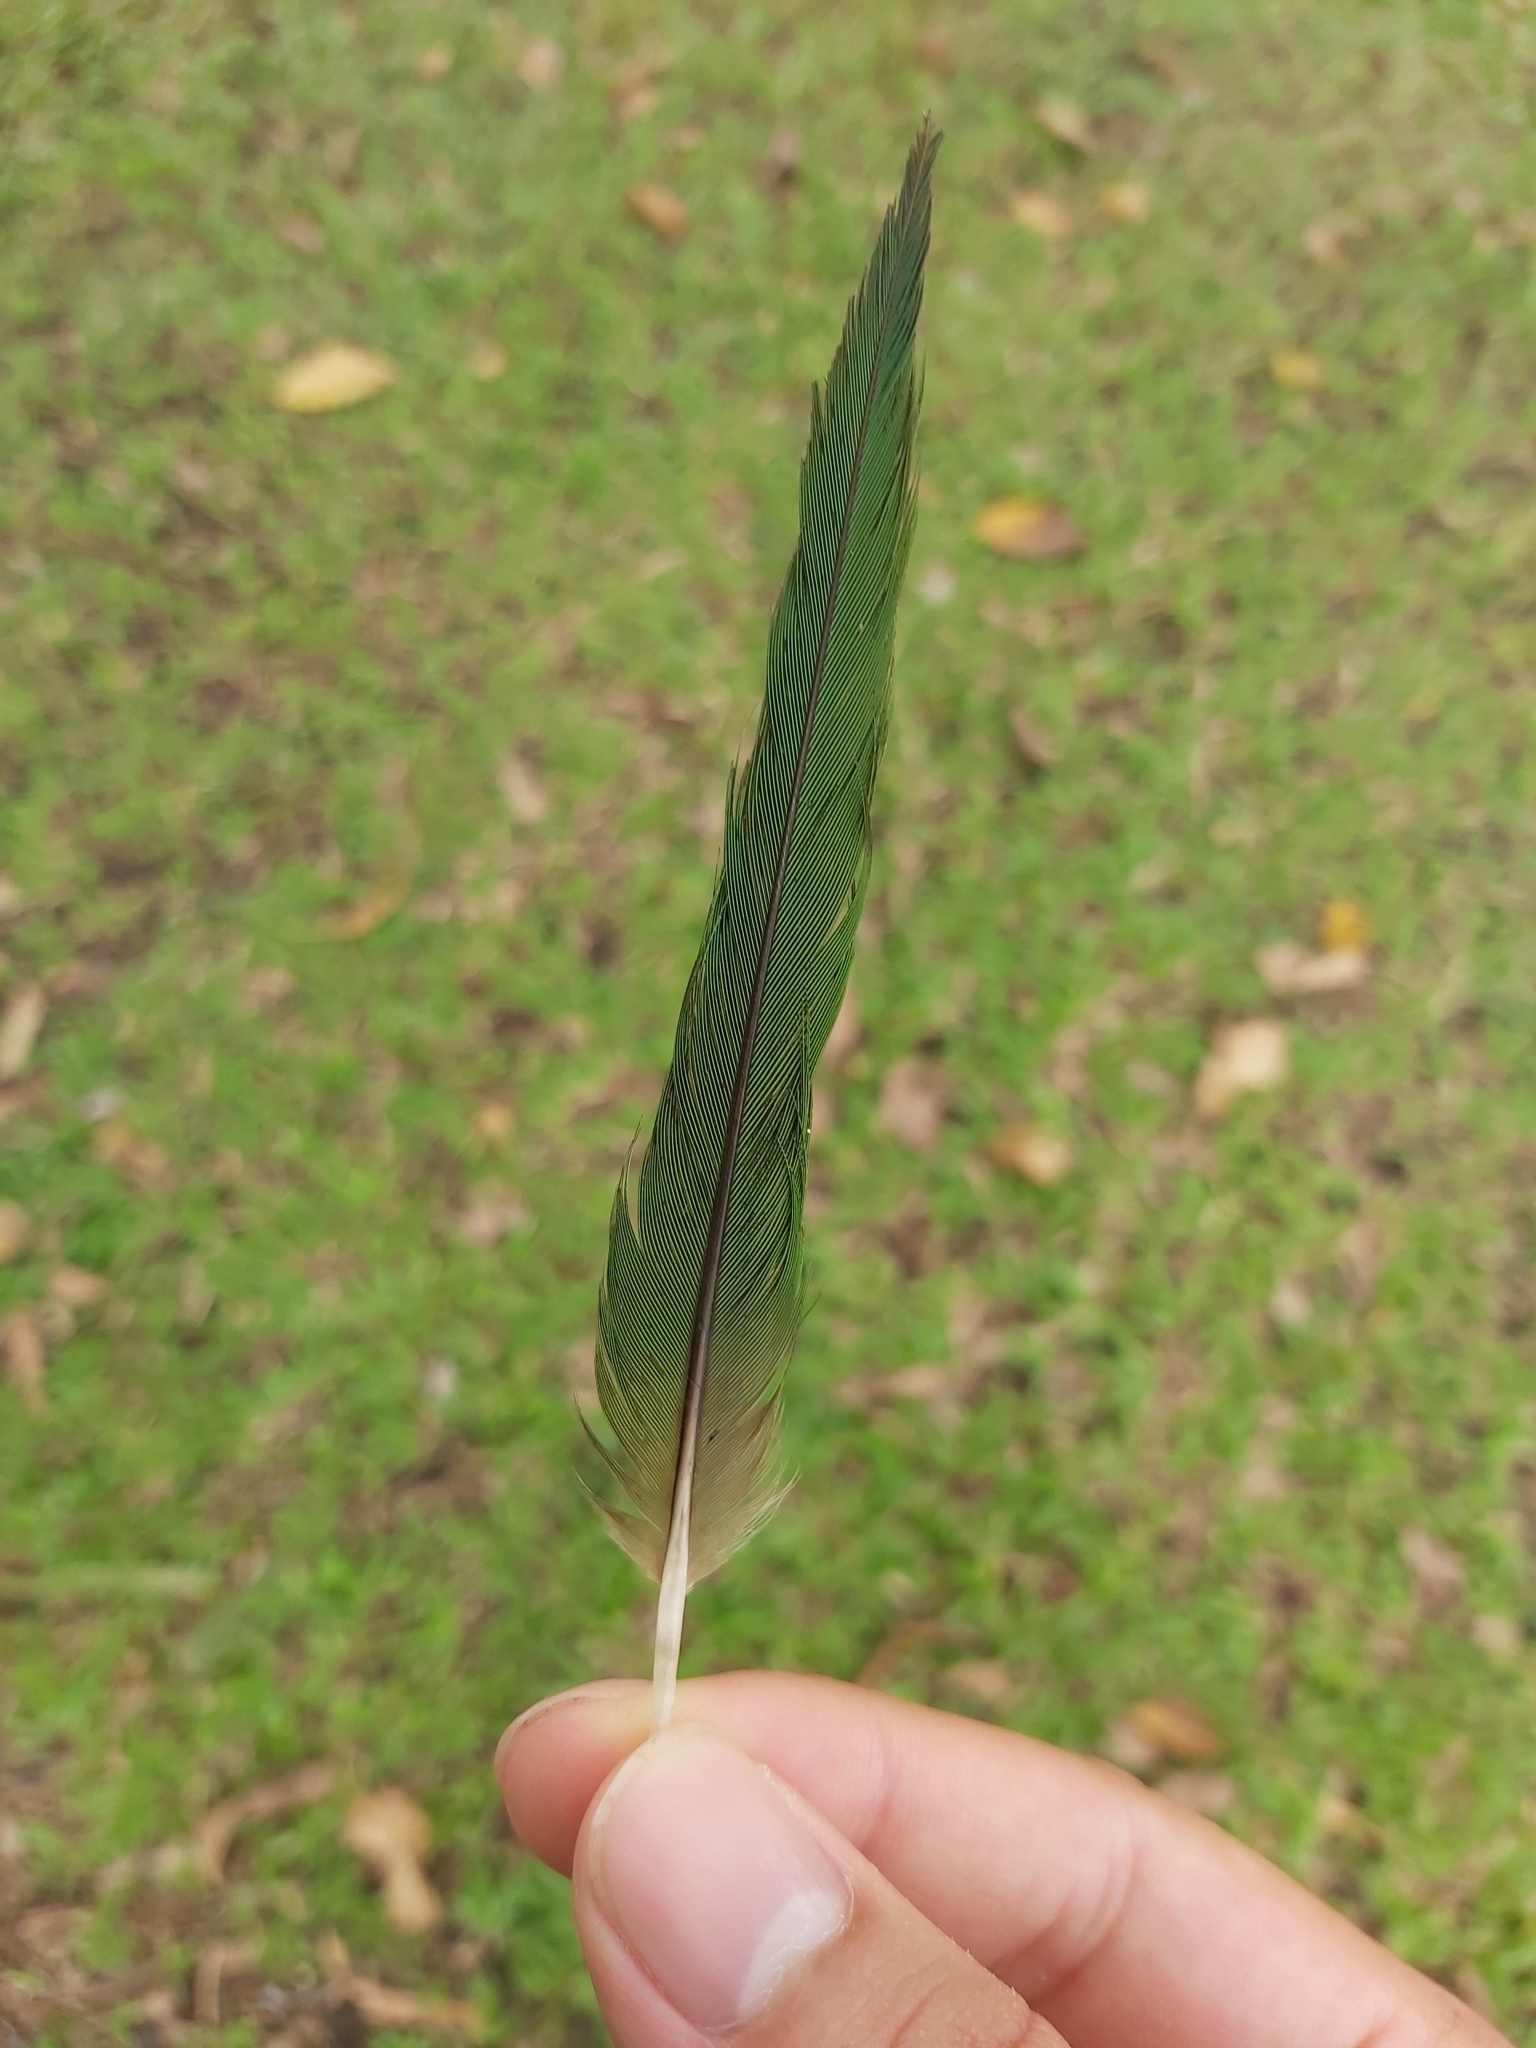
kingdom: Animalia
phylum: Chordata
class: Aves
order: Psittaciformes
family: Psittacidae
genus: Trichoglossus
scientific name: Trichoglossus haematodus
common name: Coconut lorikeet
